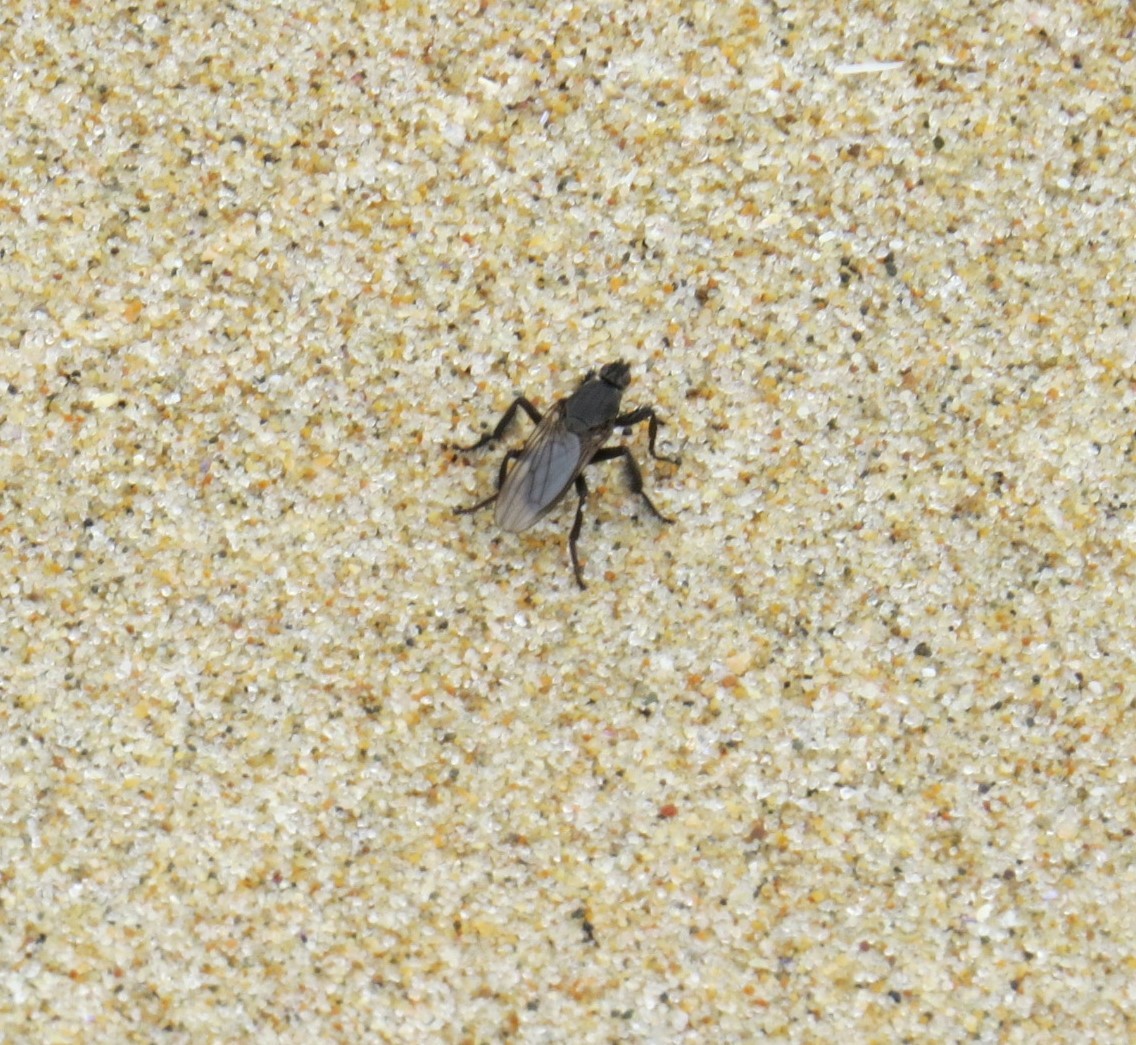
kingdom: Animalia
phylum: Arthropoda
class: Insecta
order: Diptera
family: Coelopidae
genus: Coelopa
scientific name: Coelopa vanduzeei
